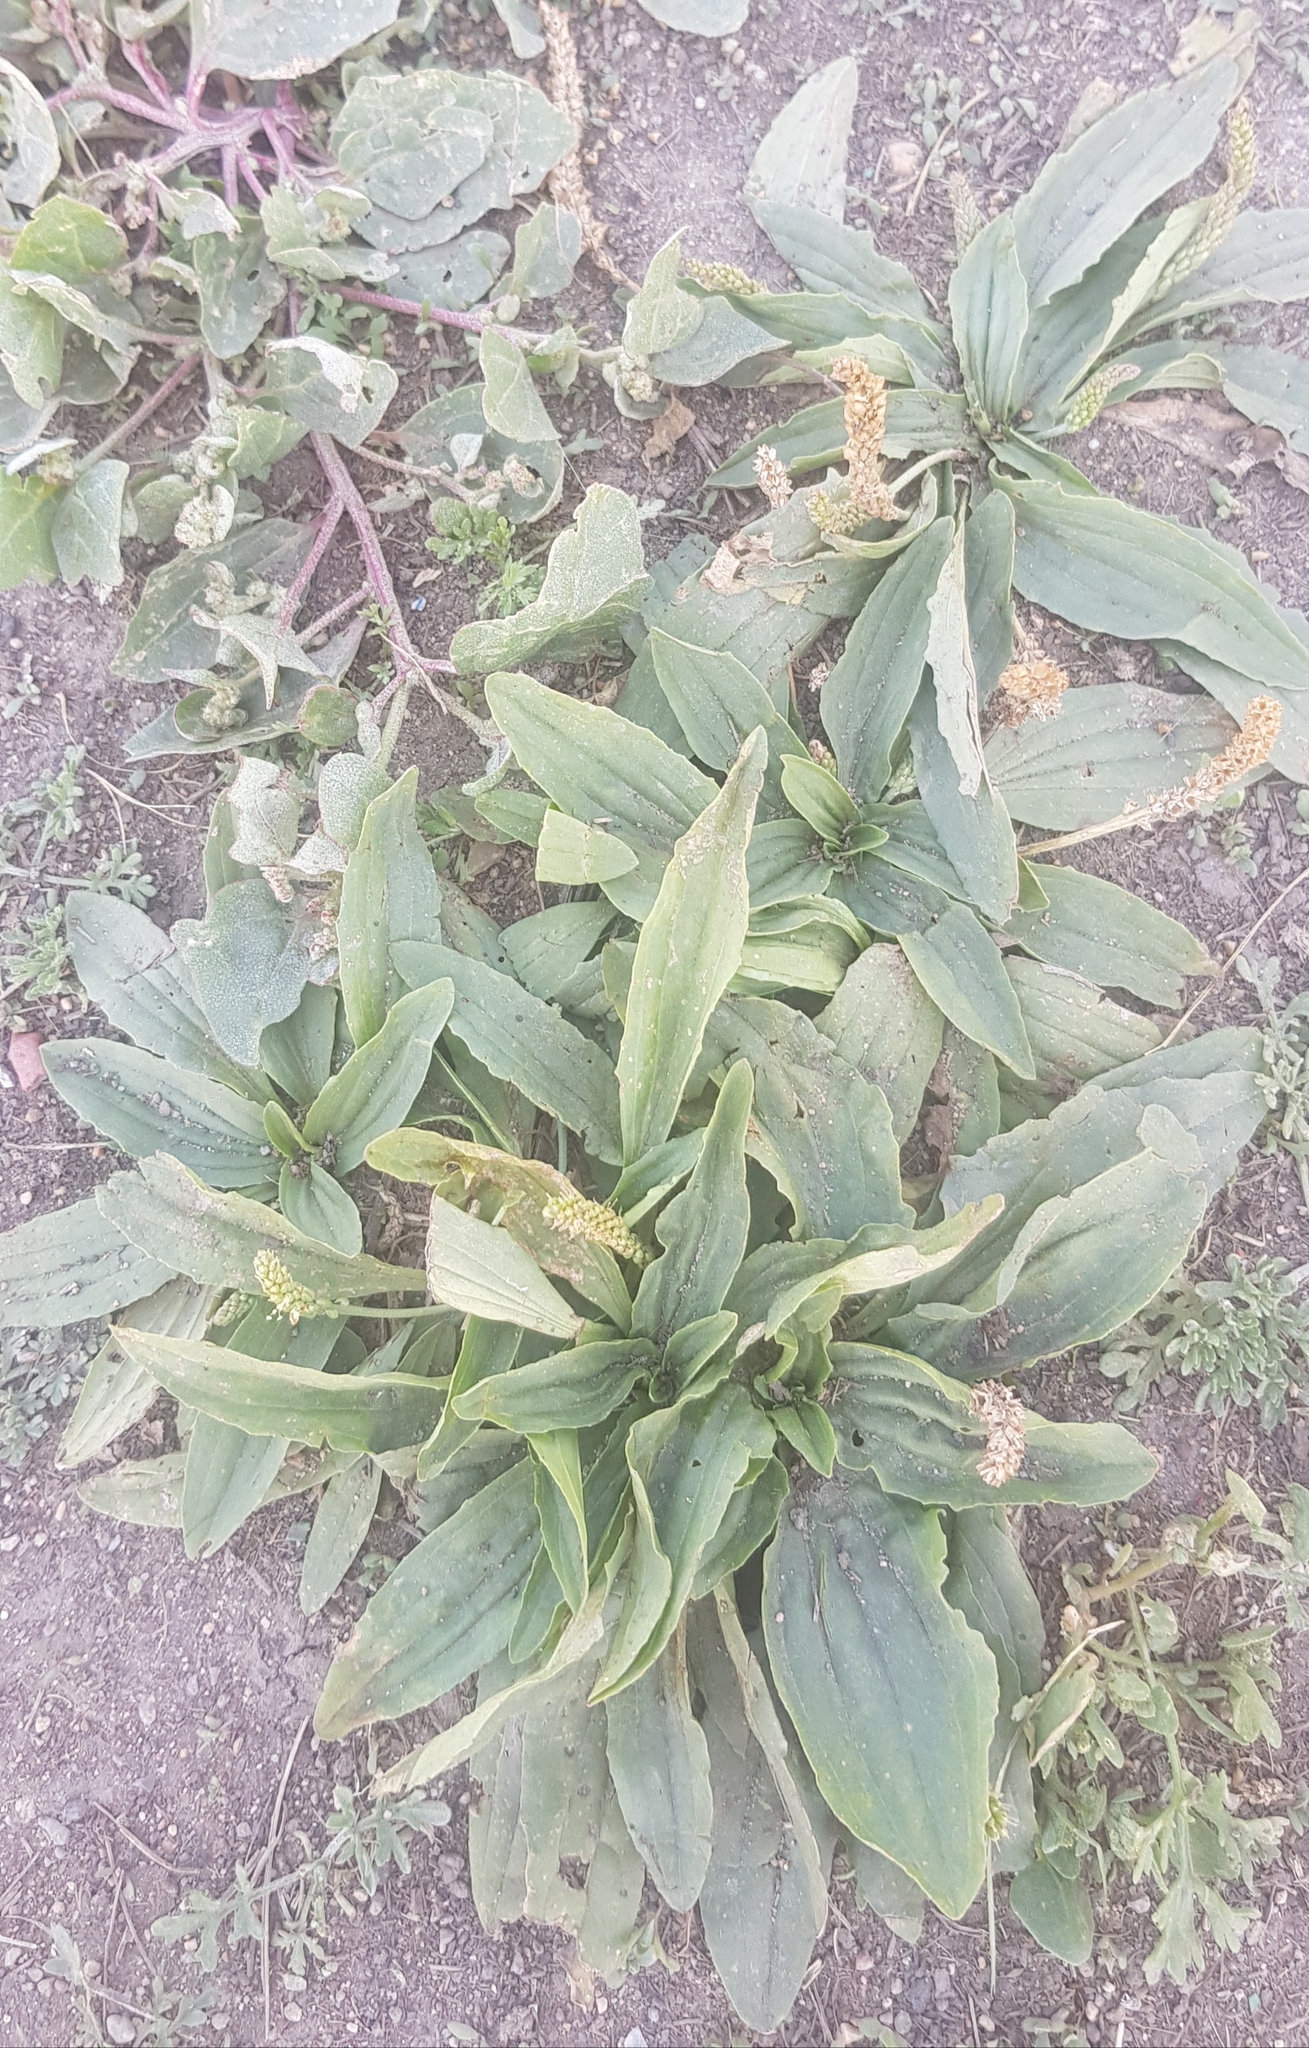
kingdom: Plantae
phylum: Tracheophyta
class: Magnoliopsida
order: Lamiales
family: Plantaginaceae
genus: Plantago
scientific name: Plantago depressa
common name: Depressed plantain
